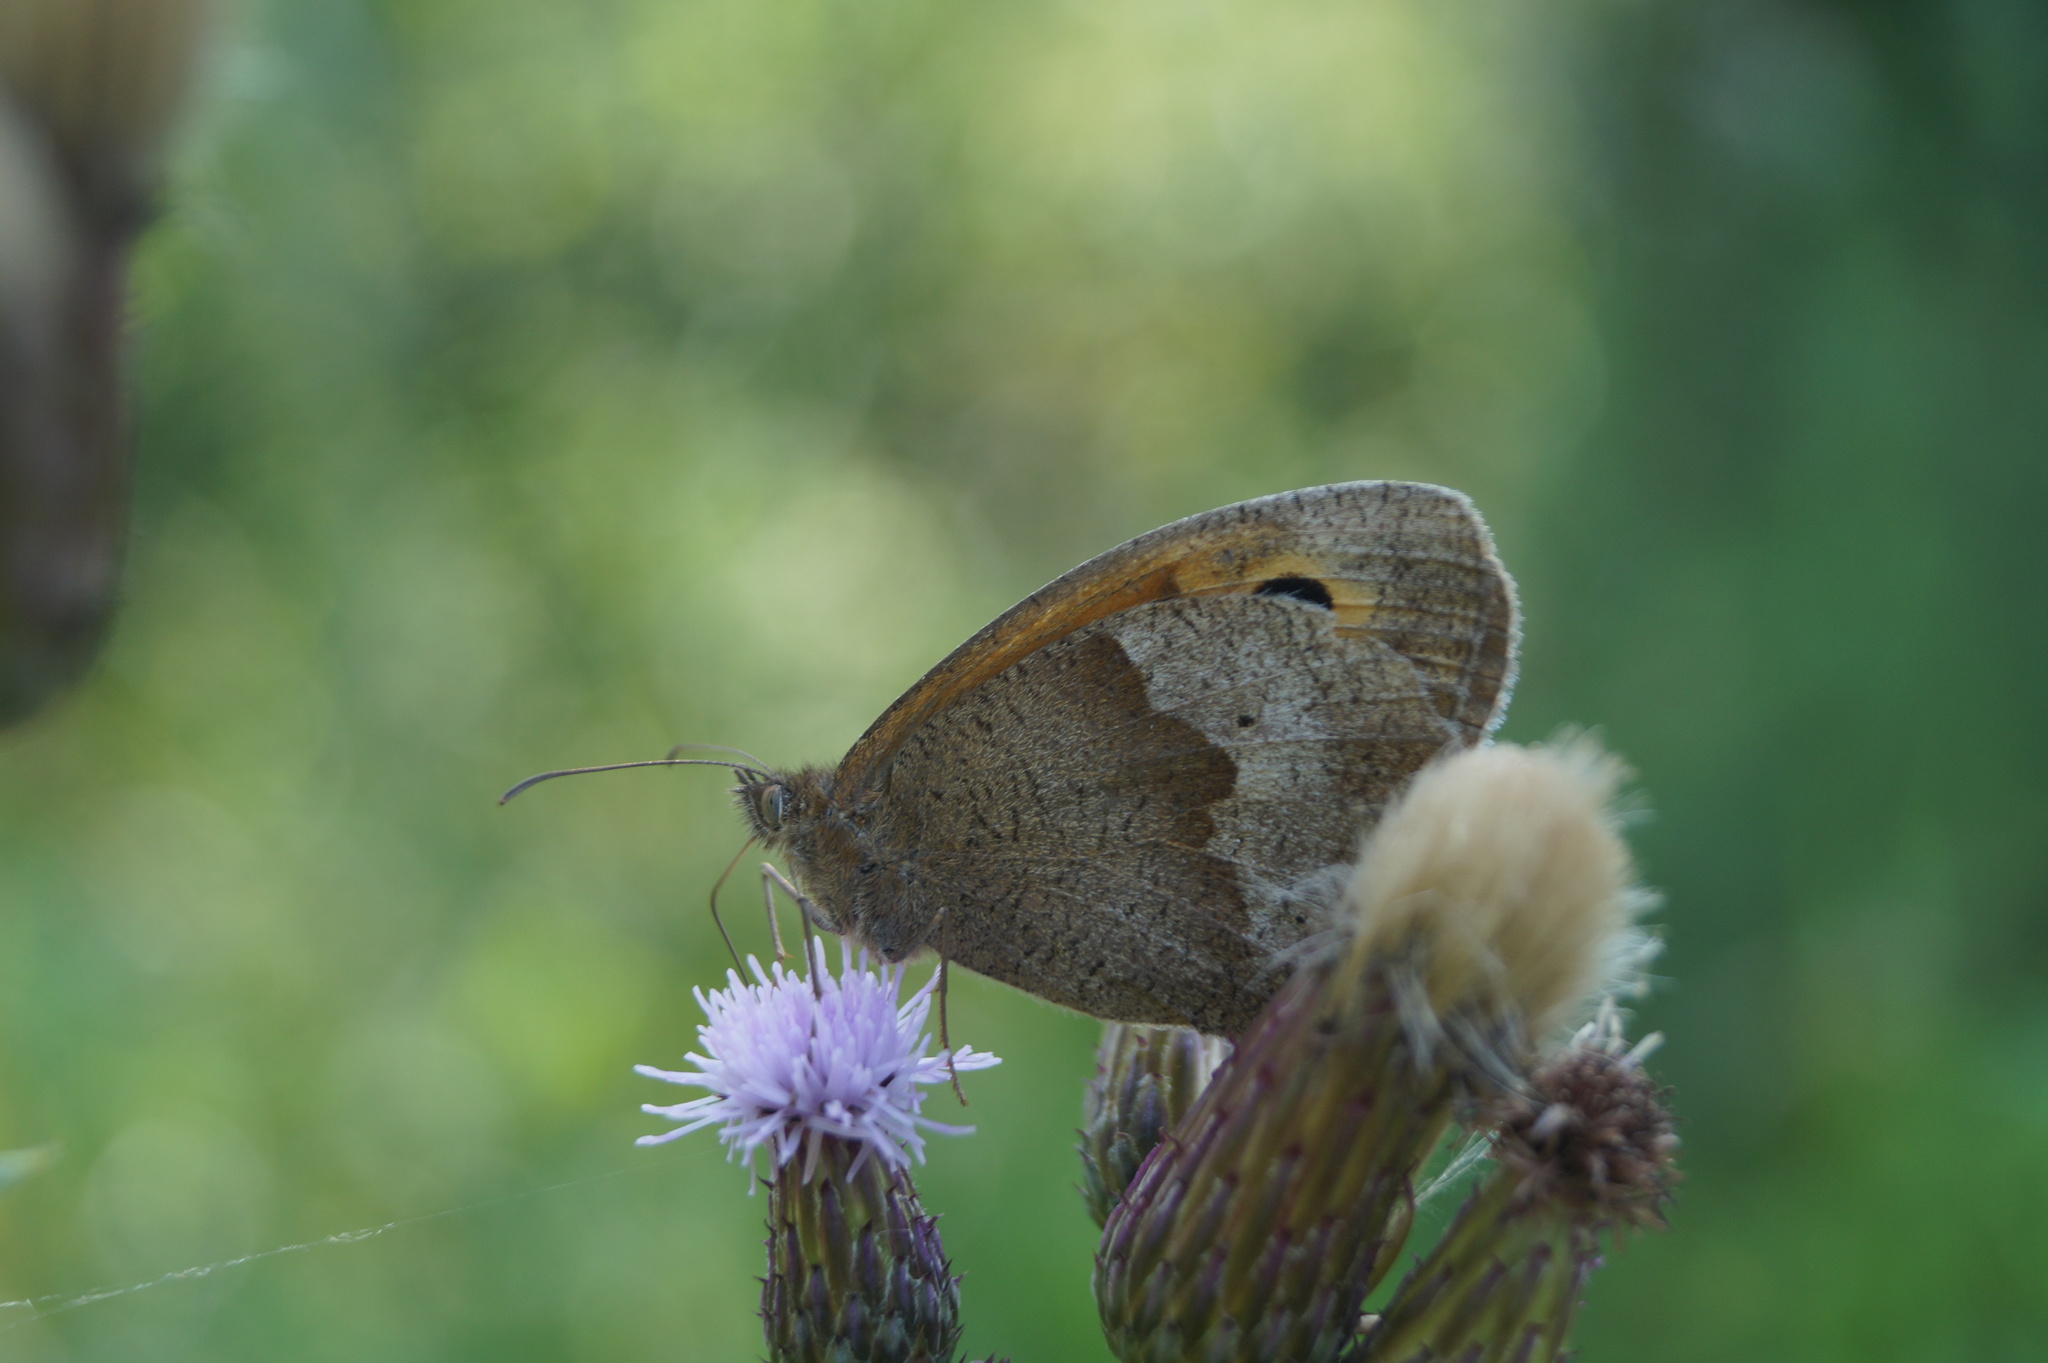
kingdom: Animalia
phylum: Arthropoda
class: Insecta
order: Lepidoptera
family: Nymphalidae
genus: Maniola
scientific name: Maniola jurtina
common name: Meadow brown
